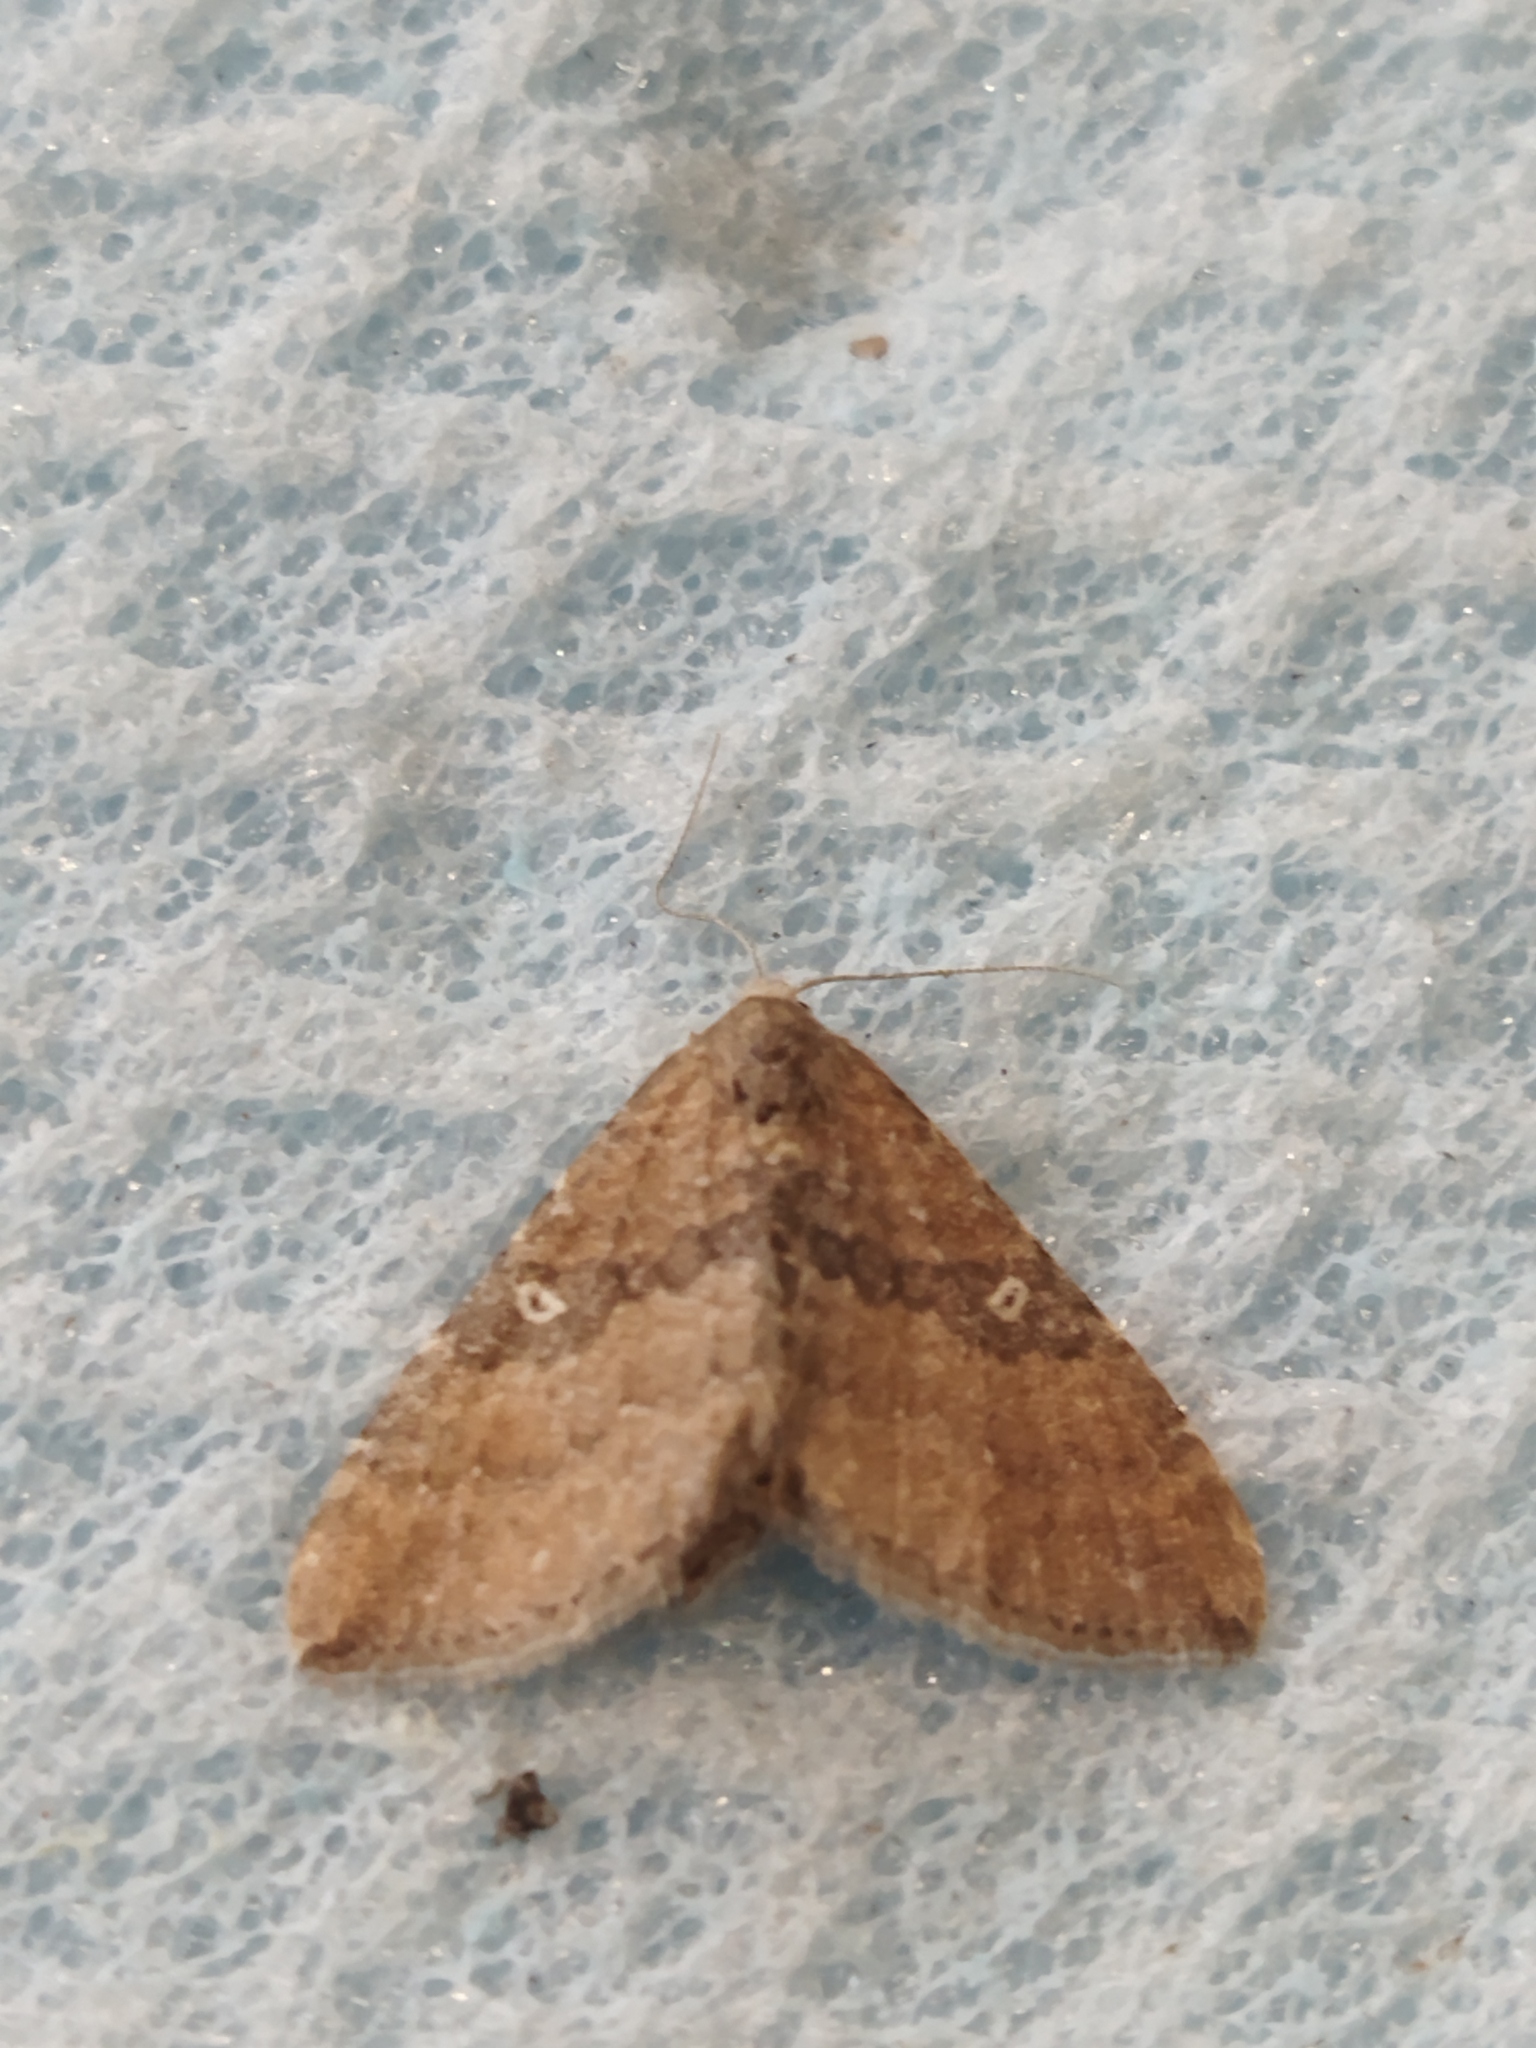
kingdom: Animalia
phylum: Arthropoda
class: Insecta
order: Lepidoptera
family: Geometridae
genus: Orthonama
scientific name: Orthonama obstipata
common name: The gem
